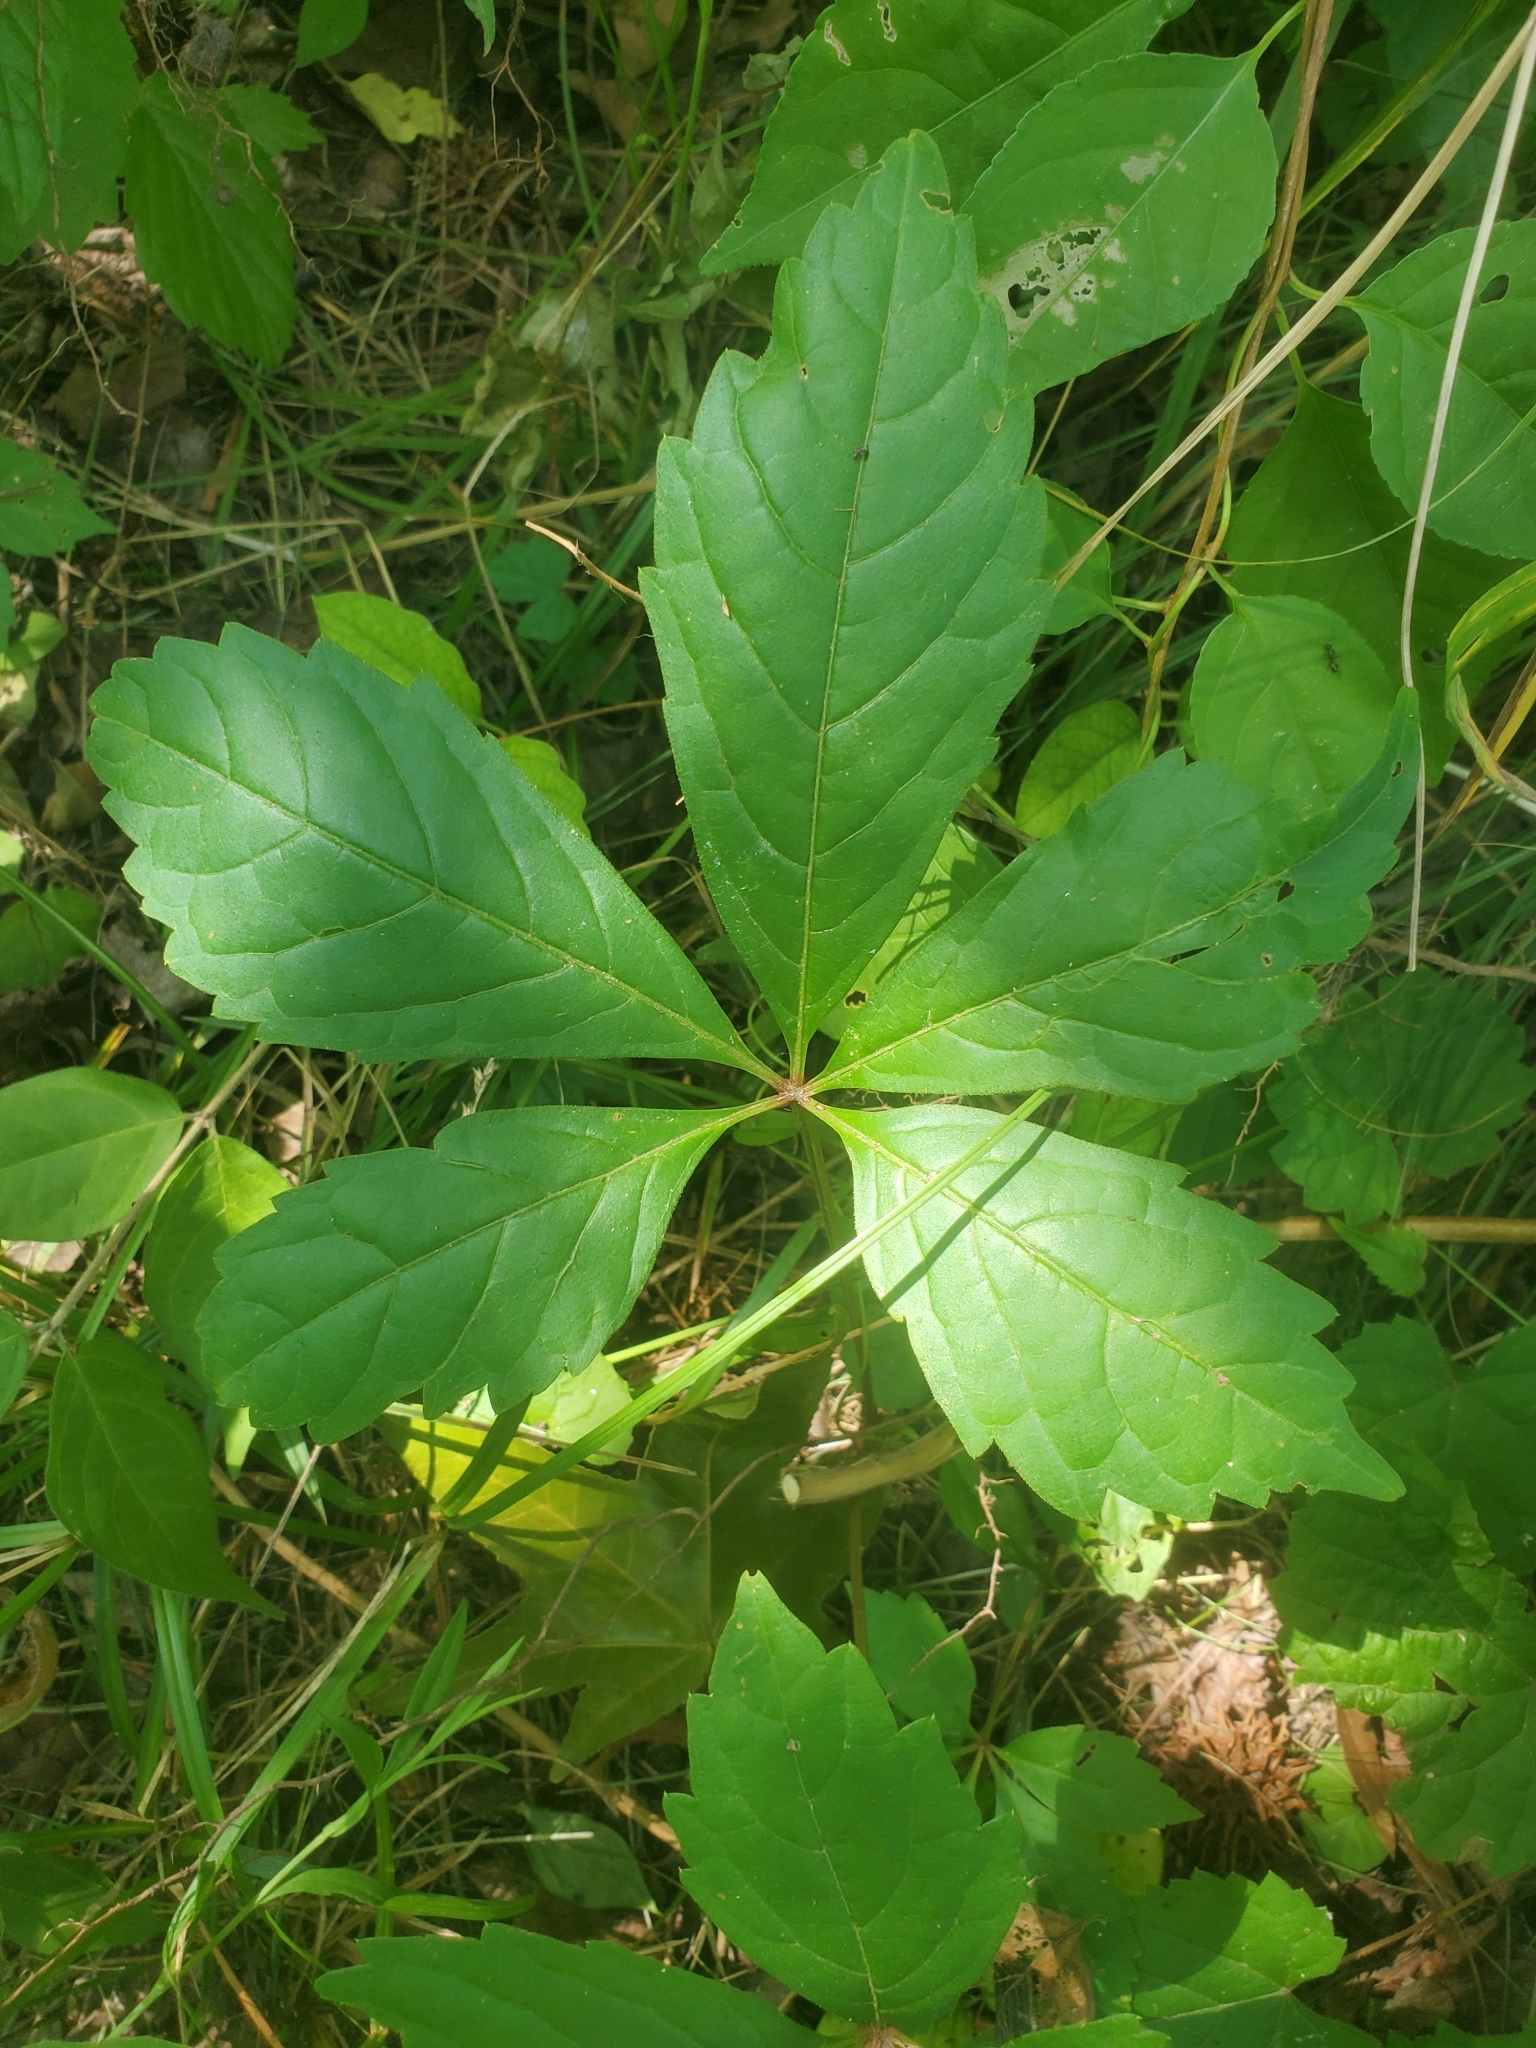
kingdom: Plantae
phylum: Tracheophyta
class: Magnoliopsida
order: Vitales
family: Vitaceae
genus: Parthenocissus
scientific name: Parthenocissus quinquefolia
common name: Virginia-creeper
